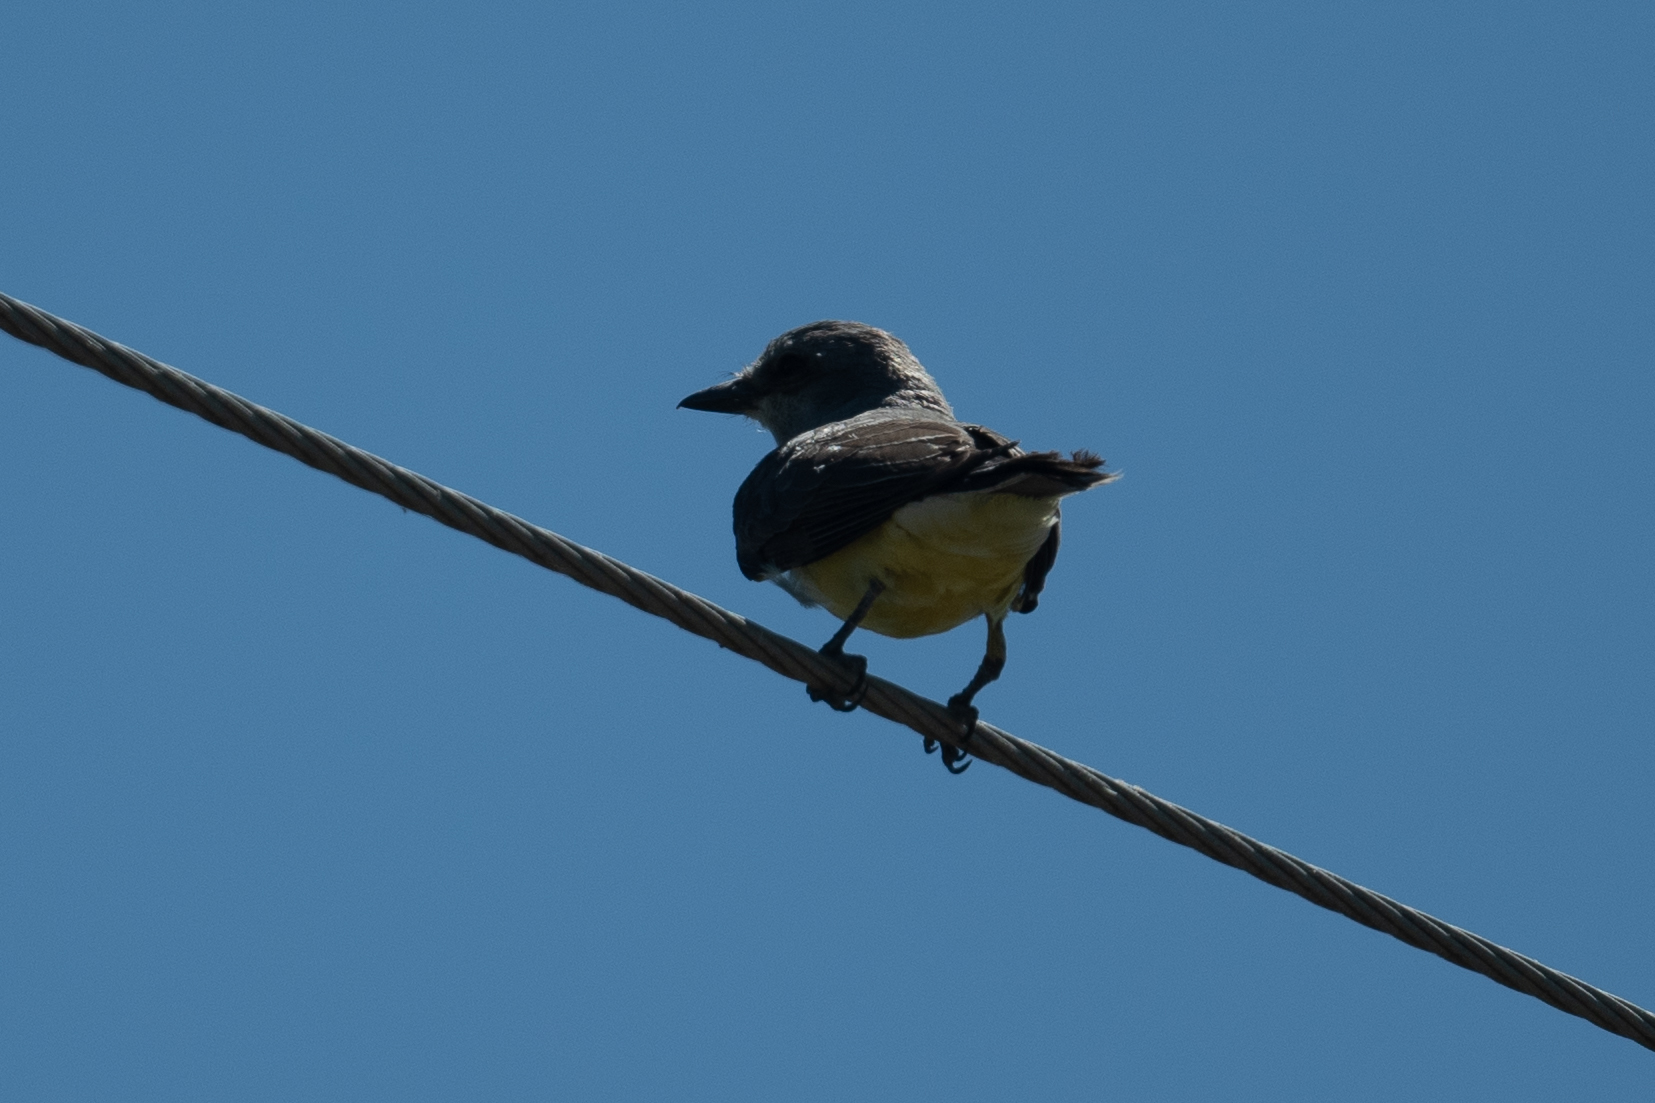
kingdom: Animalia
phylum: Chordata
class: Aves
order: Passeriformes
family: Tyrannidae
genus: Tyrannus
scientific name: Tyrannus verticalis
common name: Western kingbird
